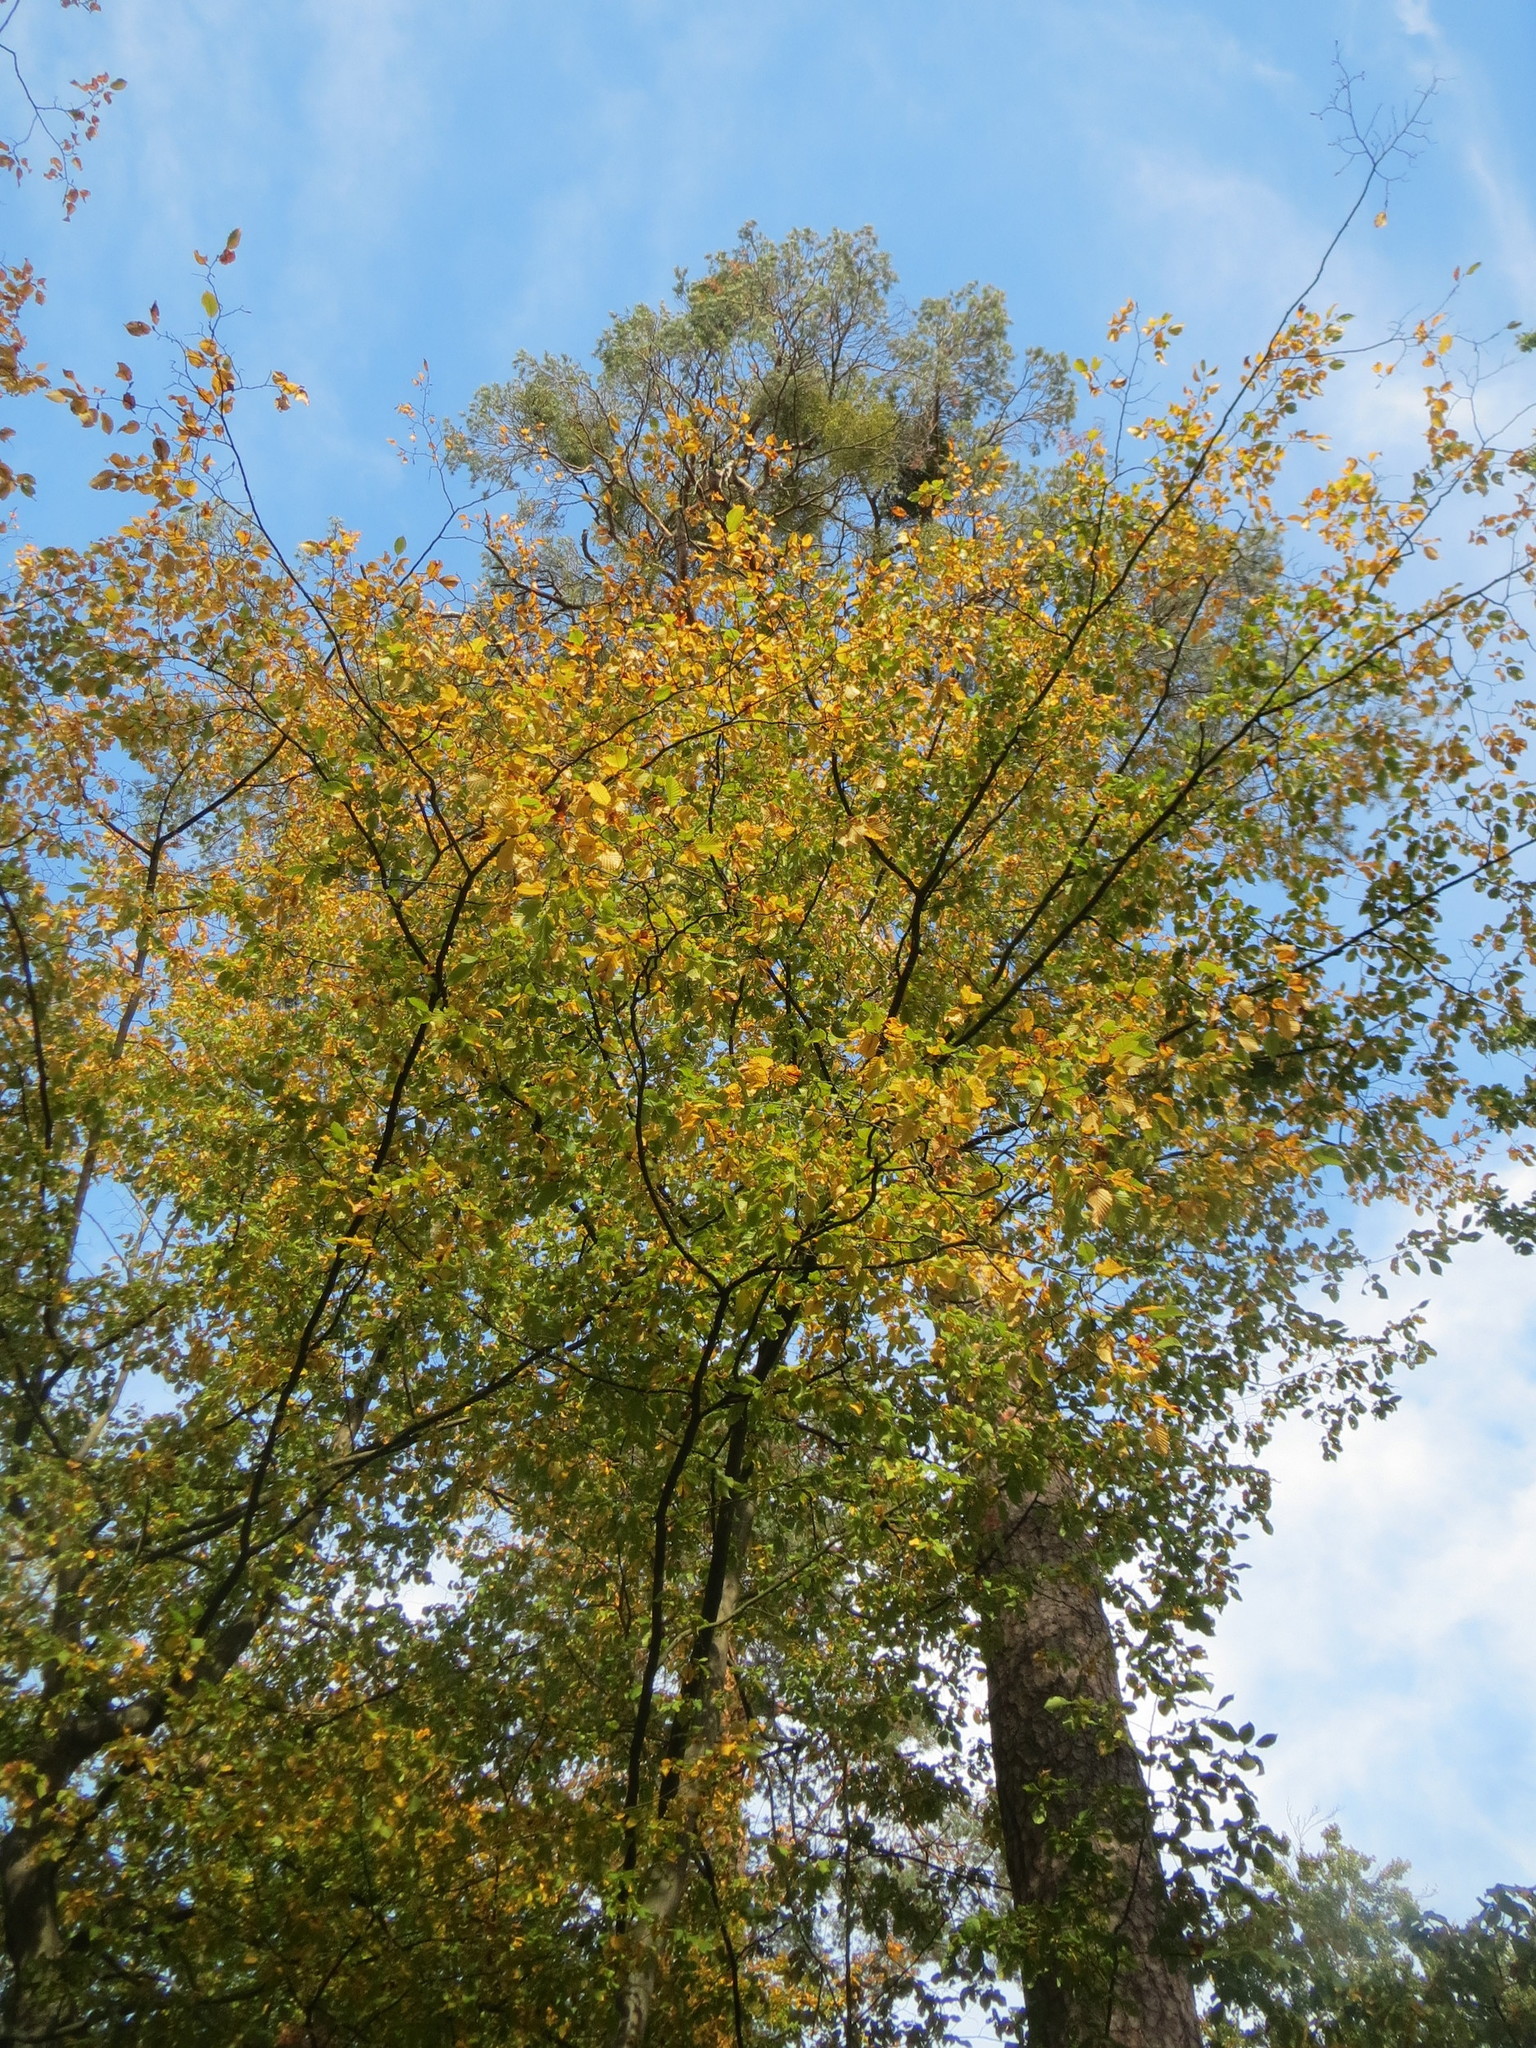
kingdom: Plantae
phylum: Tracheophyta
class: Magnoliopsida
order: Fagales
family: Betulaceae
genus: Carpinus
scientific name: Carpinus betulus
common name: Hornbeam
